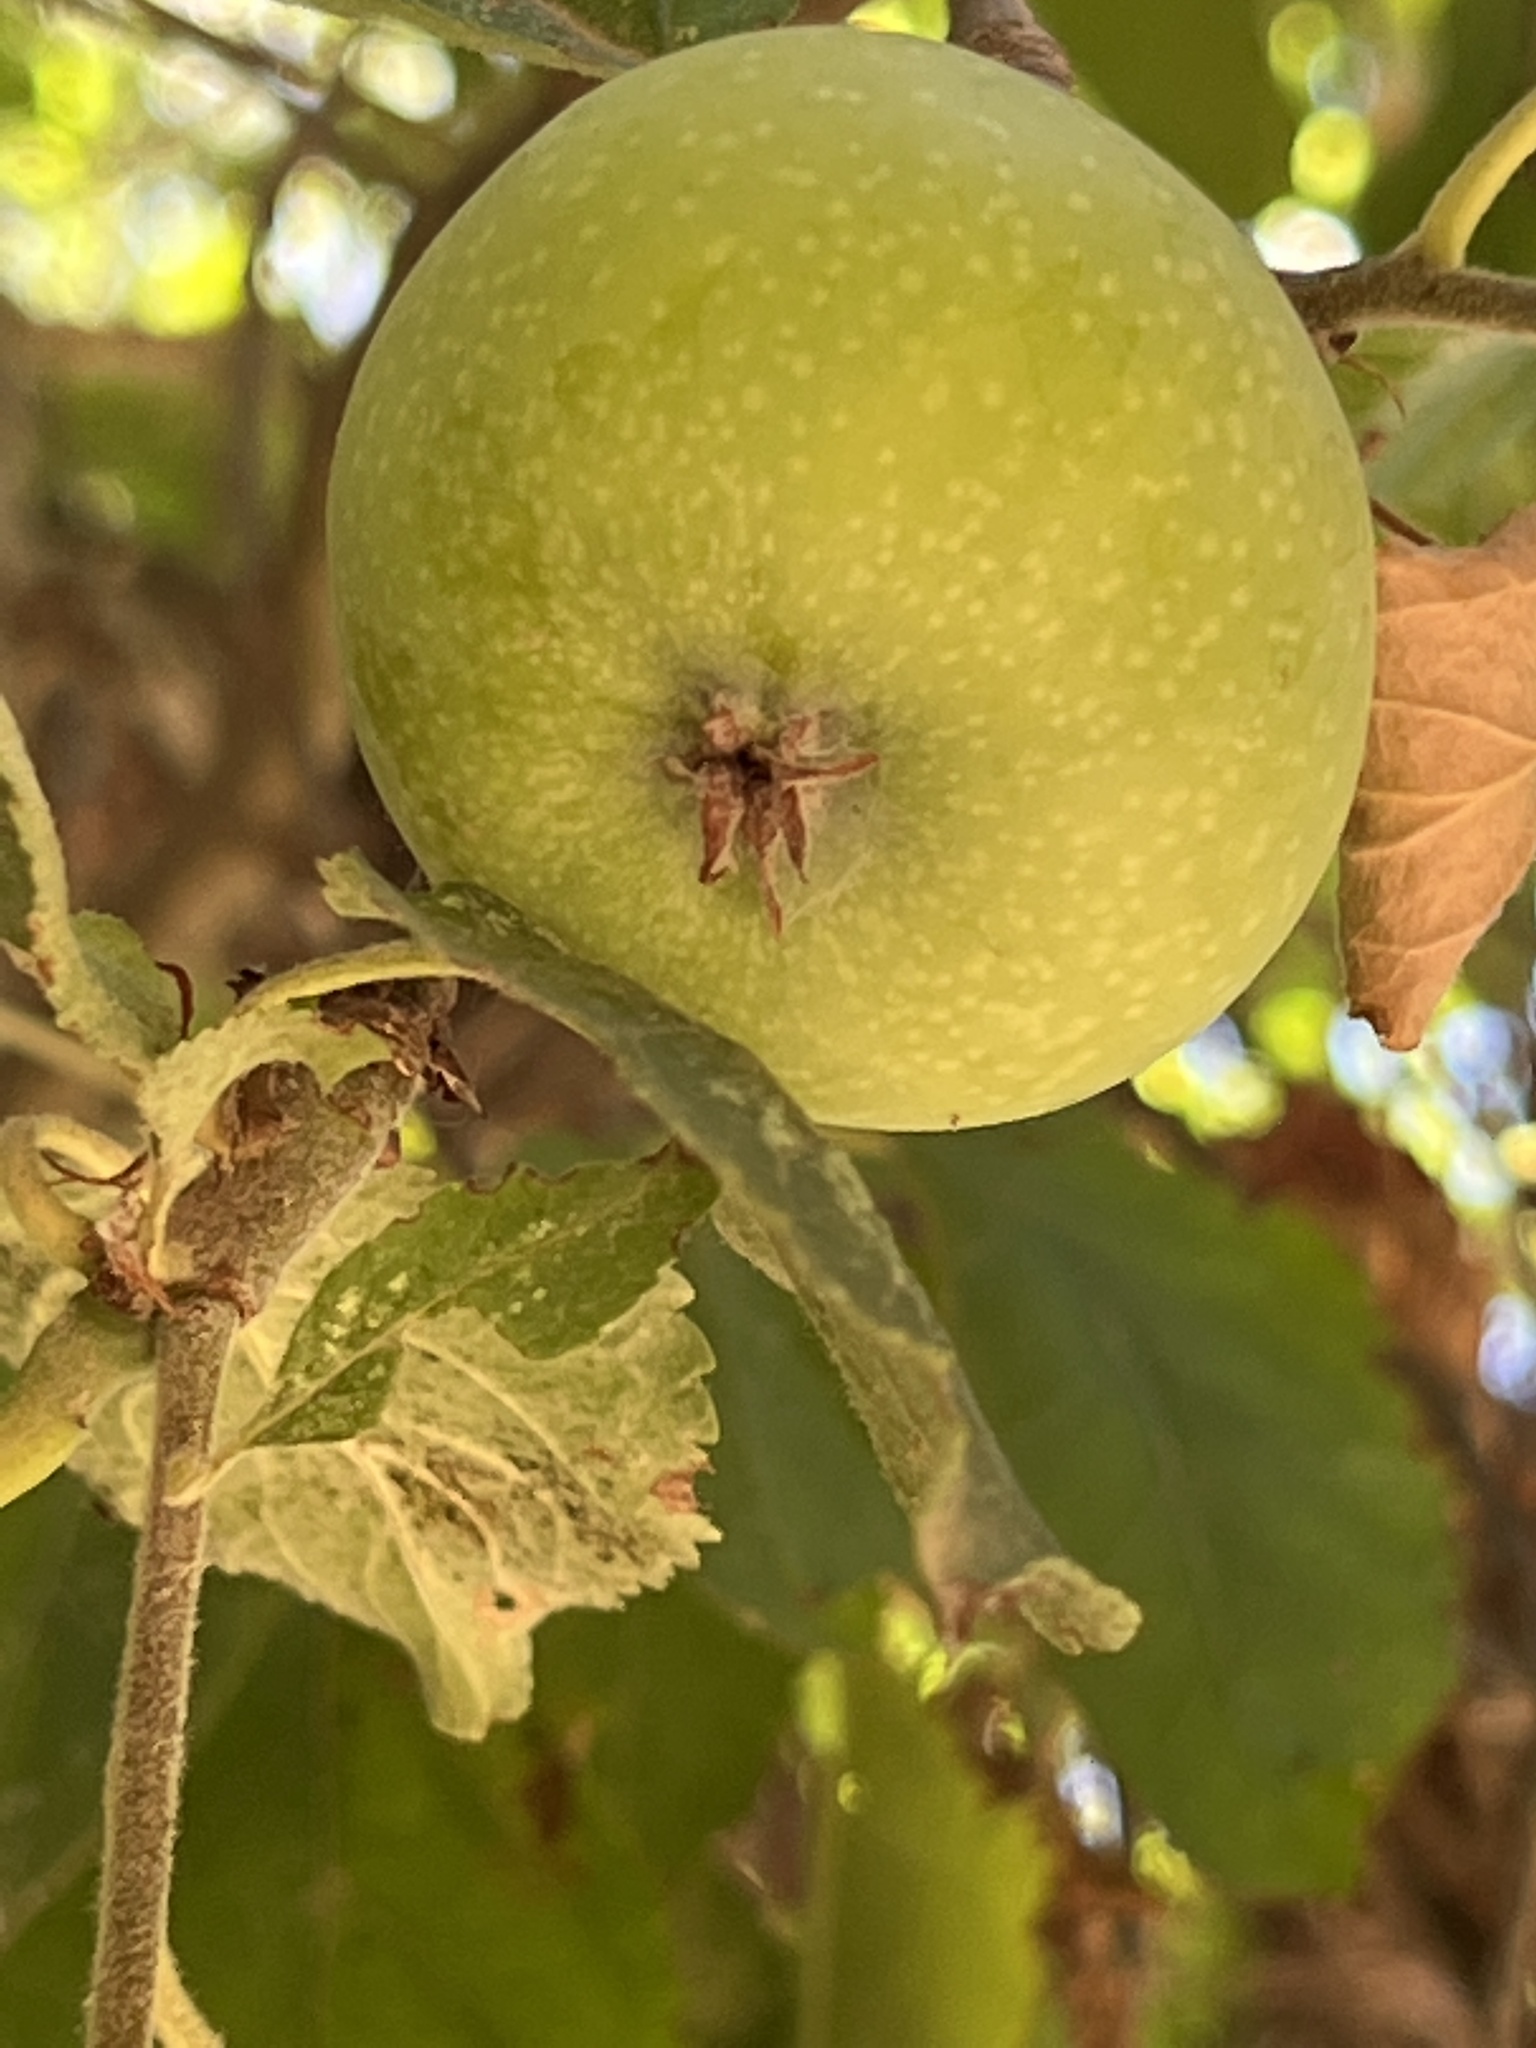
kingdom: Plantae
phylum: Tracheophyta
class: Magnoliopsida
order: Rosales
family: Rosaceae
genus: Malus
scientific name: Malus sylvestris
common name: Crab apple
